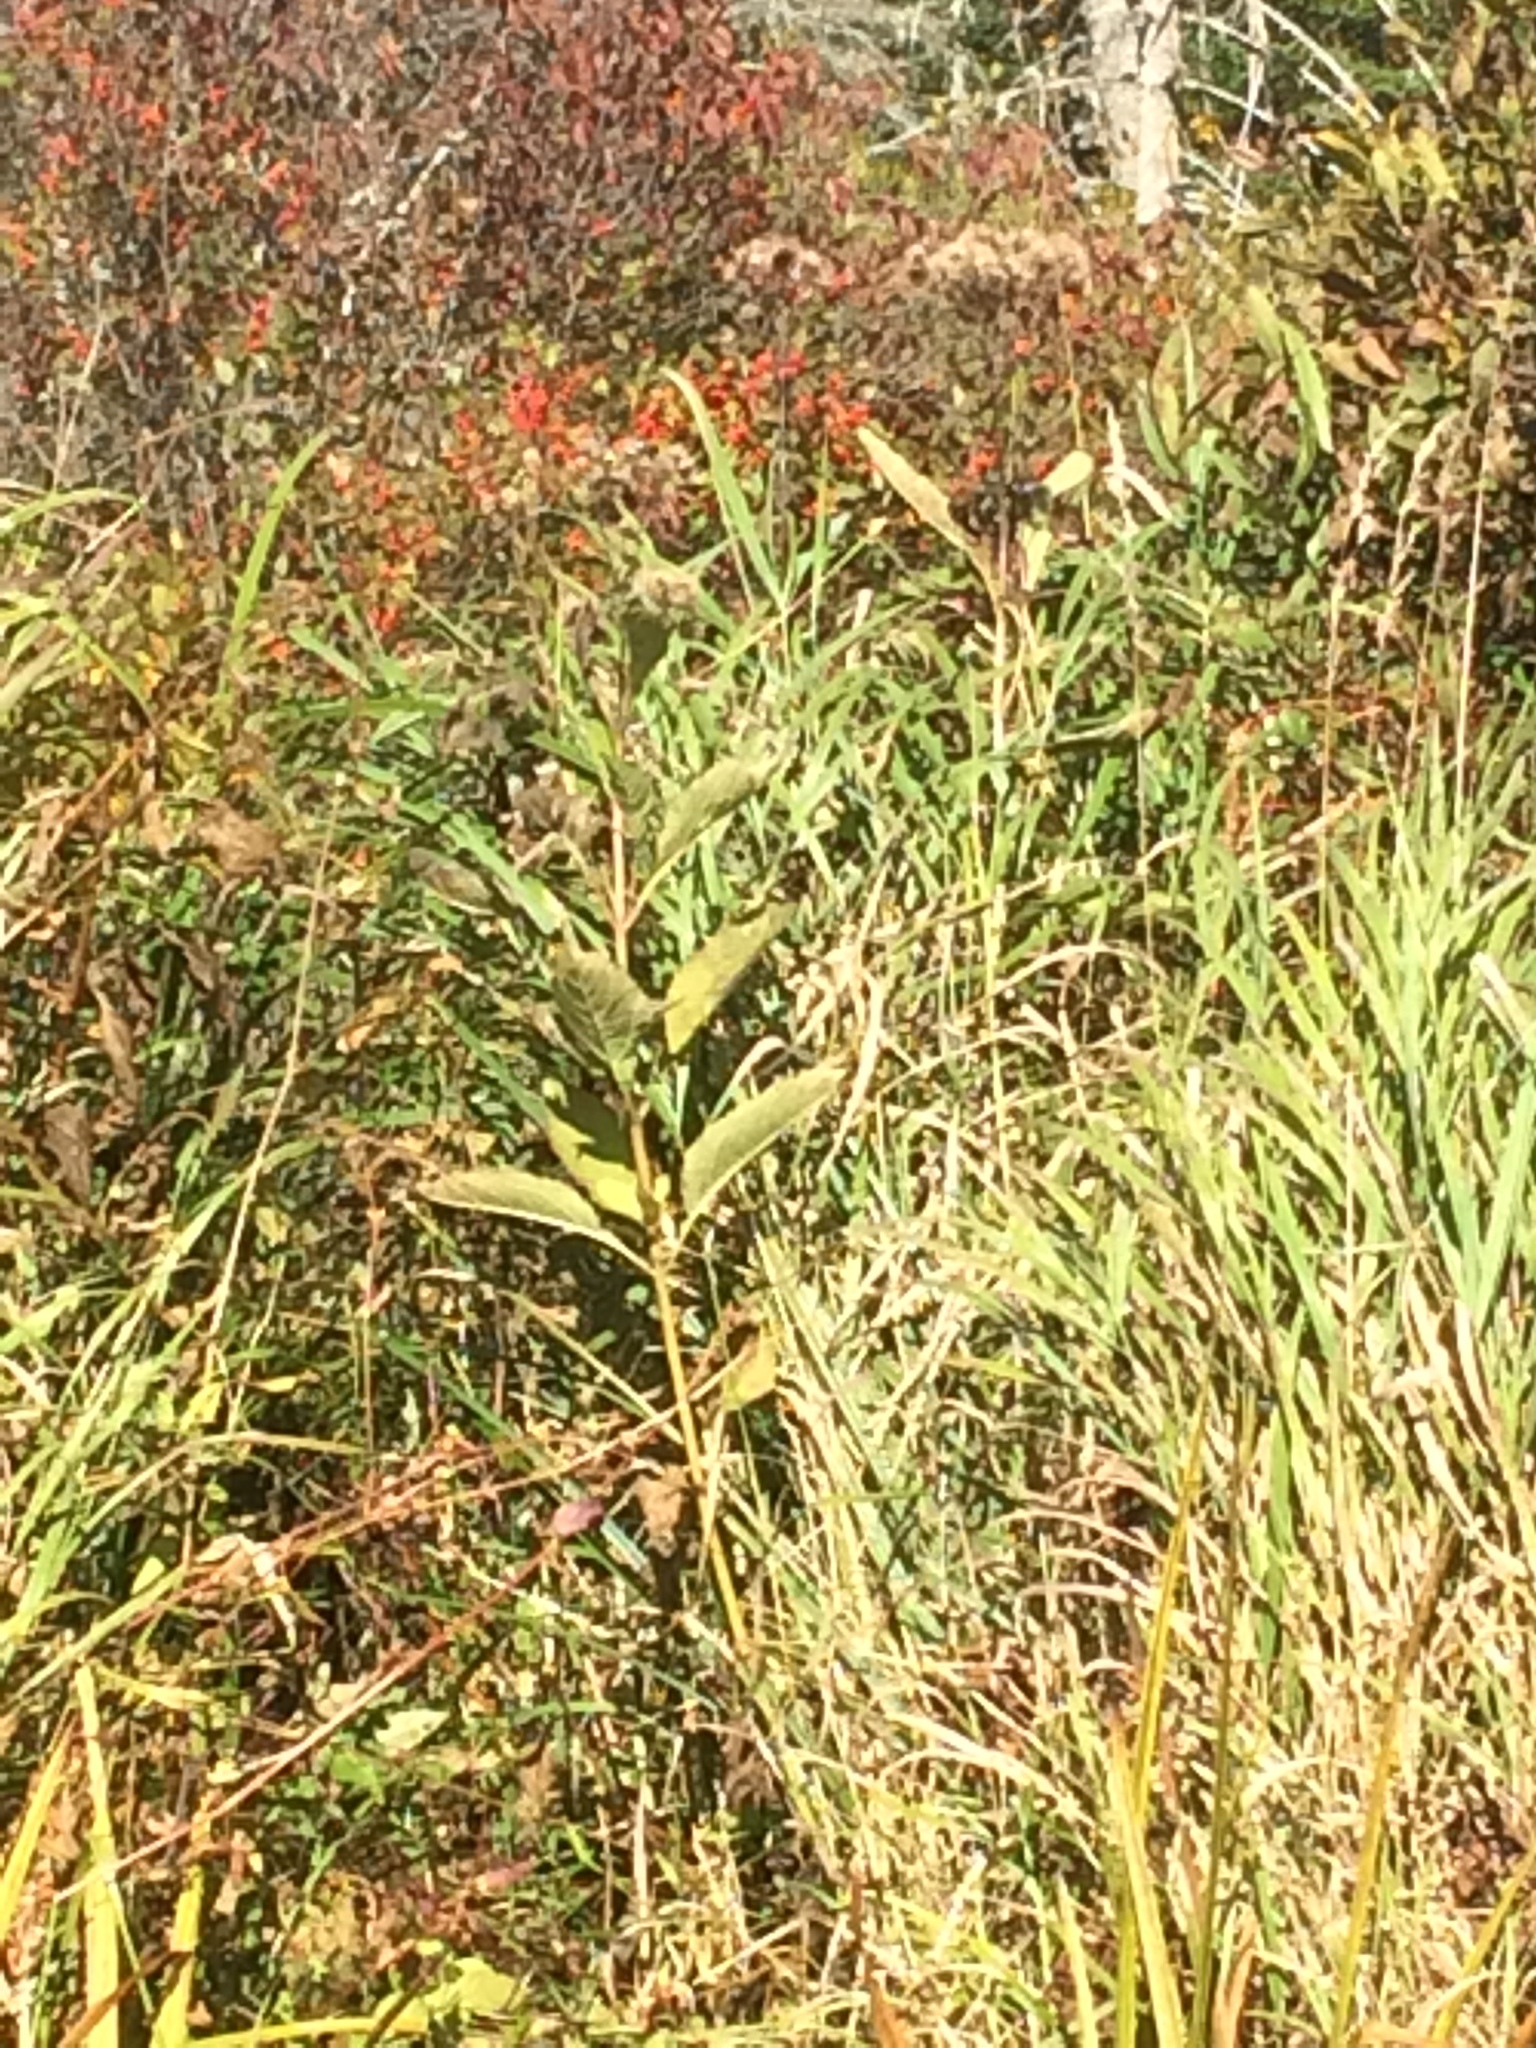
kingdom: Plantae
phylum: Tracheophyta
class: Magnoliopsida
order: Asterales
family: Asteraceae
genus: Eutrochium
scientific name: Eutrochium maculatum
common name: Spotted joe pye weed
